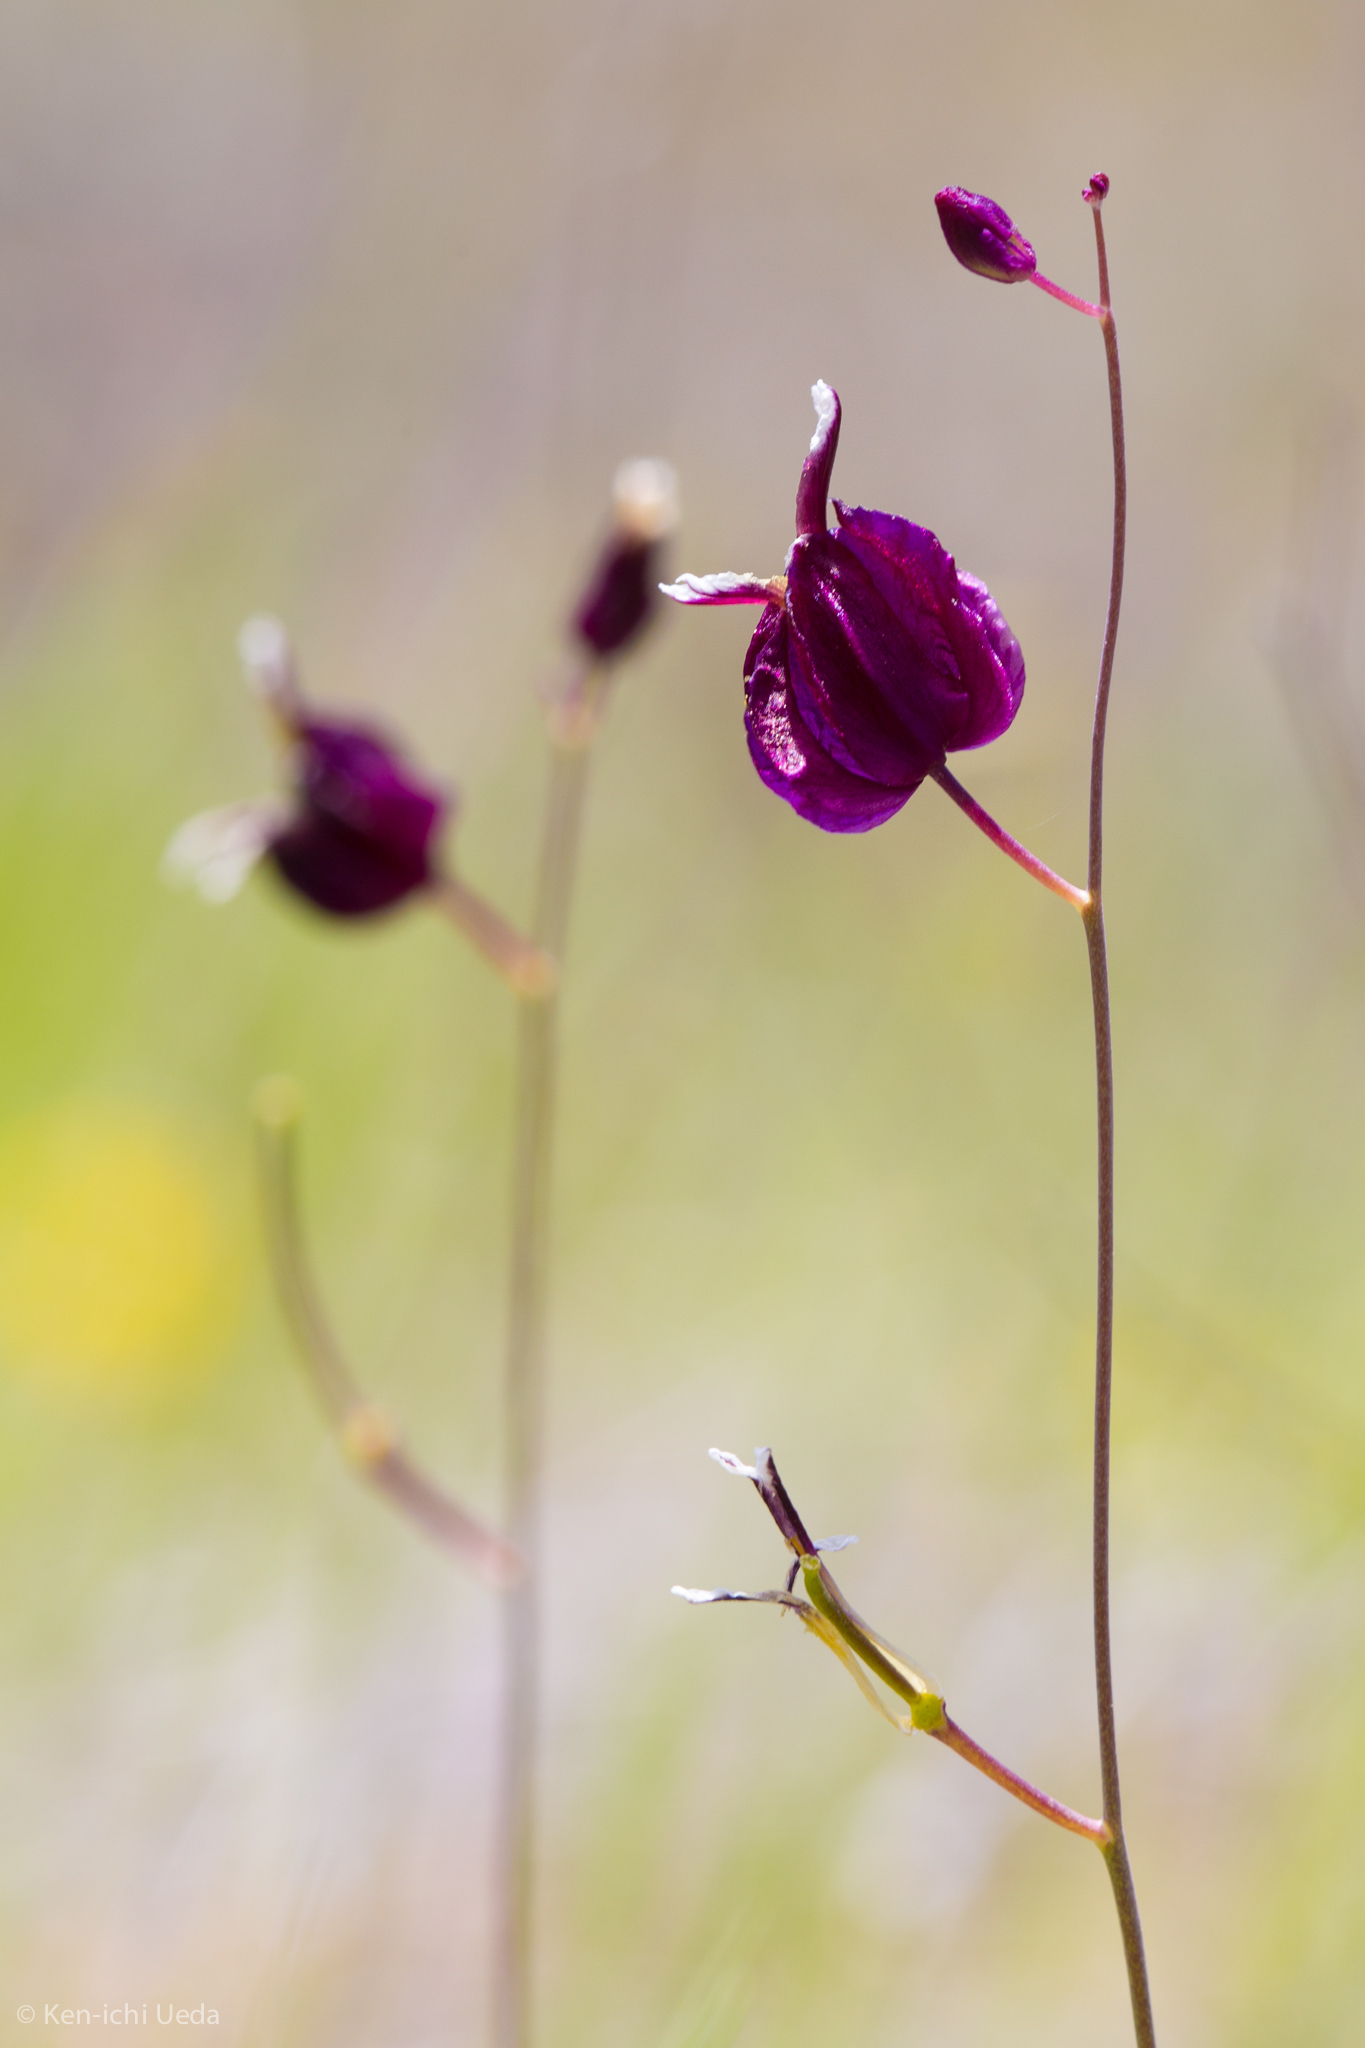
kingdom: Plantae
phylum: Tracheophyta
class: Magnoliopsida
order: Brassicales
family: Brassicaceae
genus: Streptanthus
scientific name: Streptanthus glandulosus
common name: Jewel-flower
